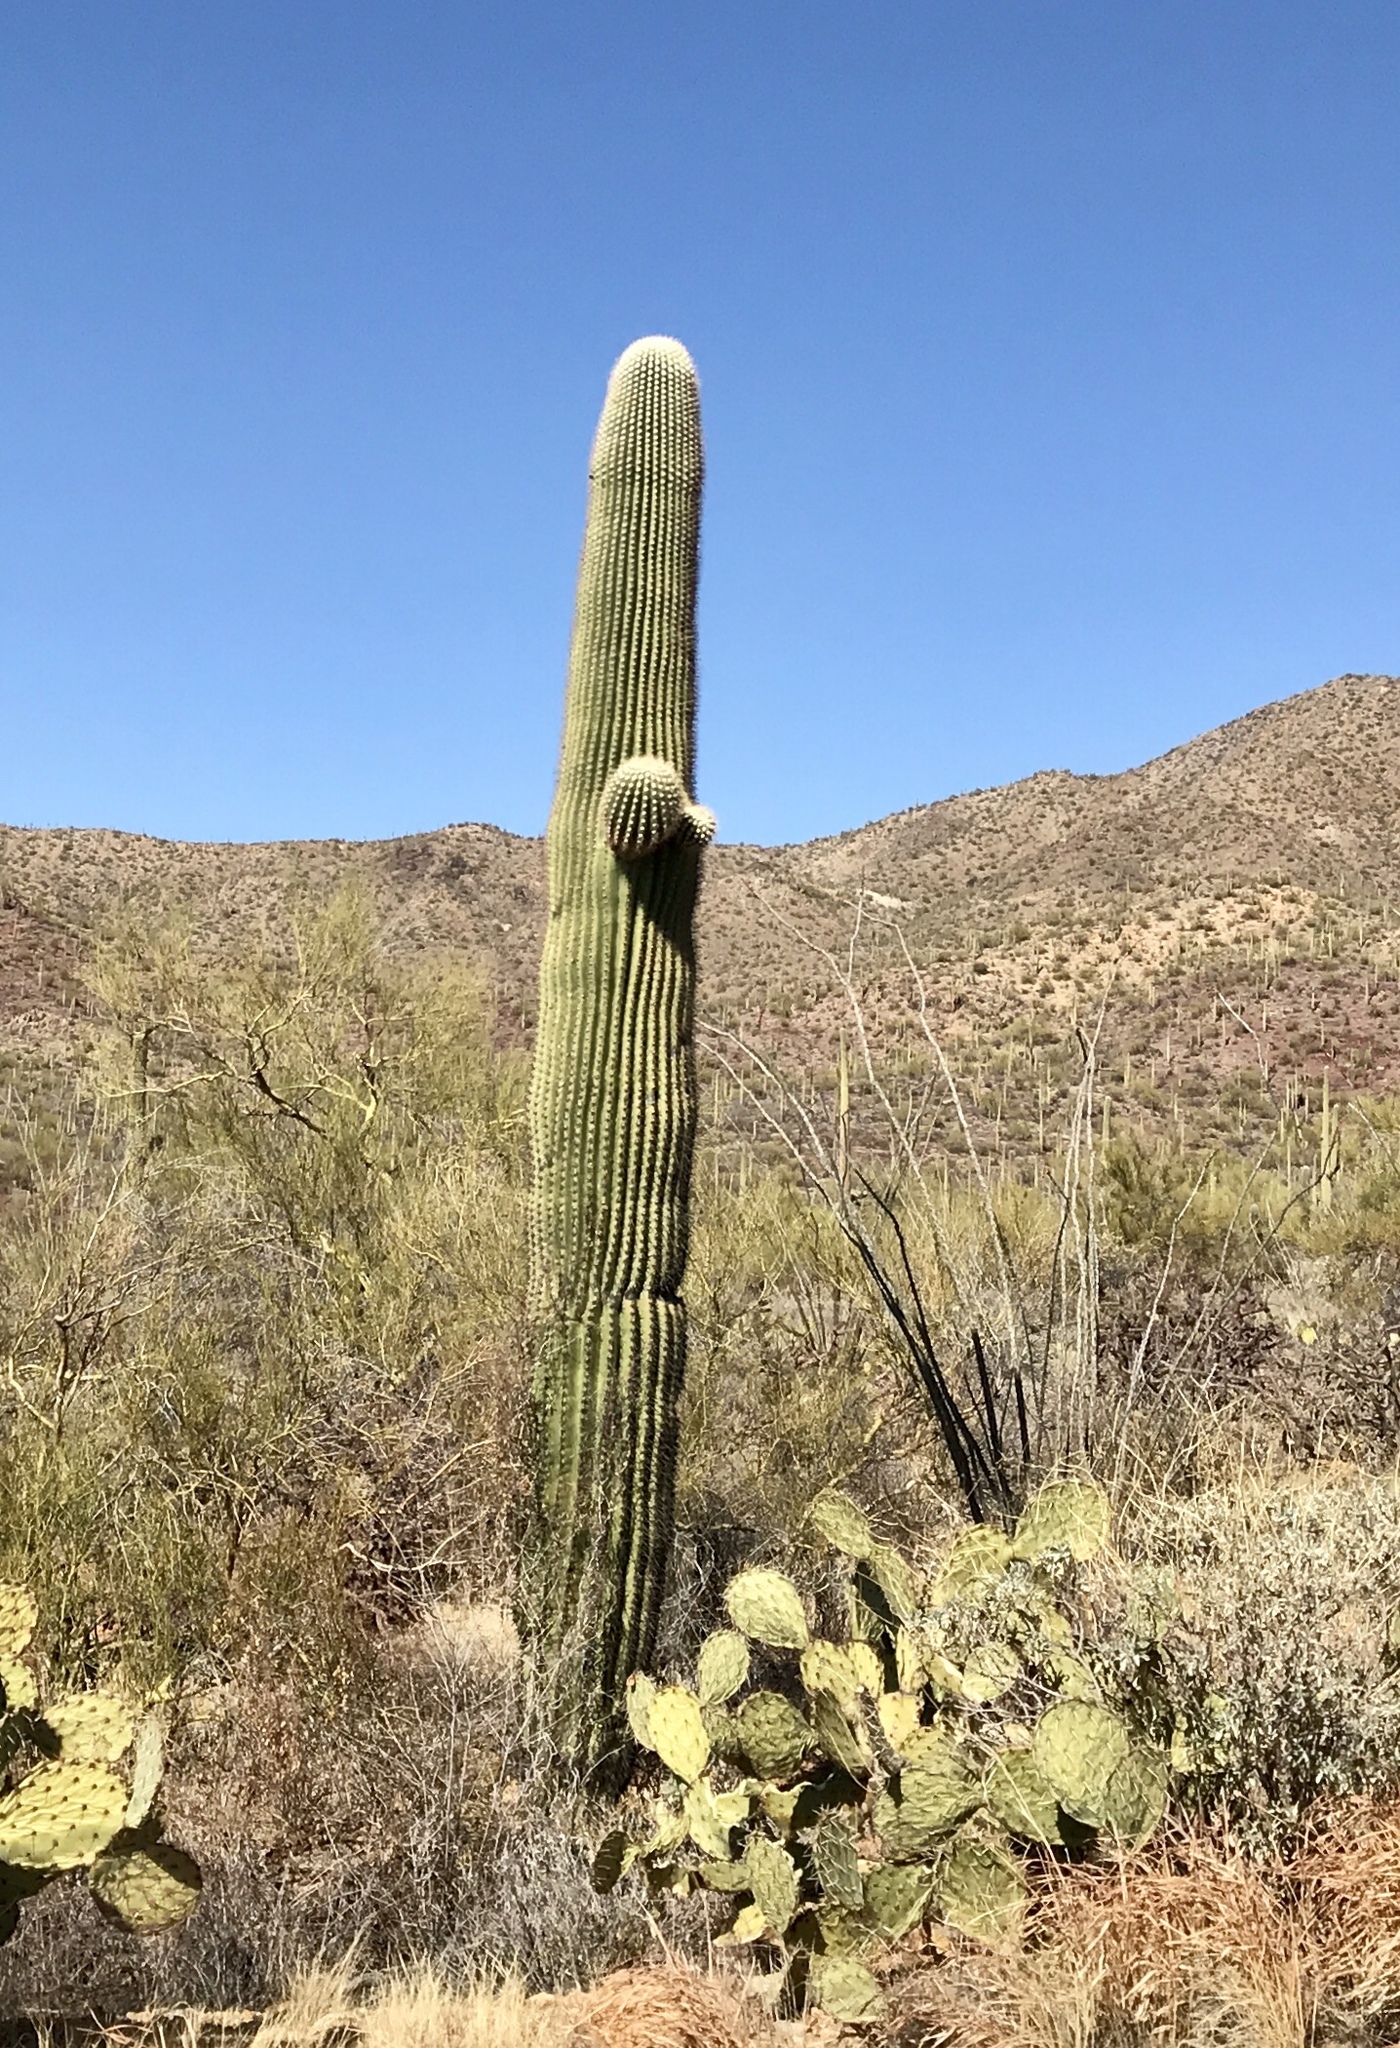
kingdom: Plantae
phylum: Tracheophyta
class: Magnoliopsida
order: Caryophyllales
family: Cactaceae
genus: Carnegiea
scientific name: Carnegiea gigantea
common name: Saguaro
